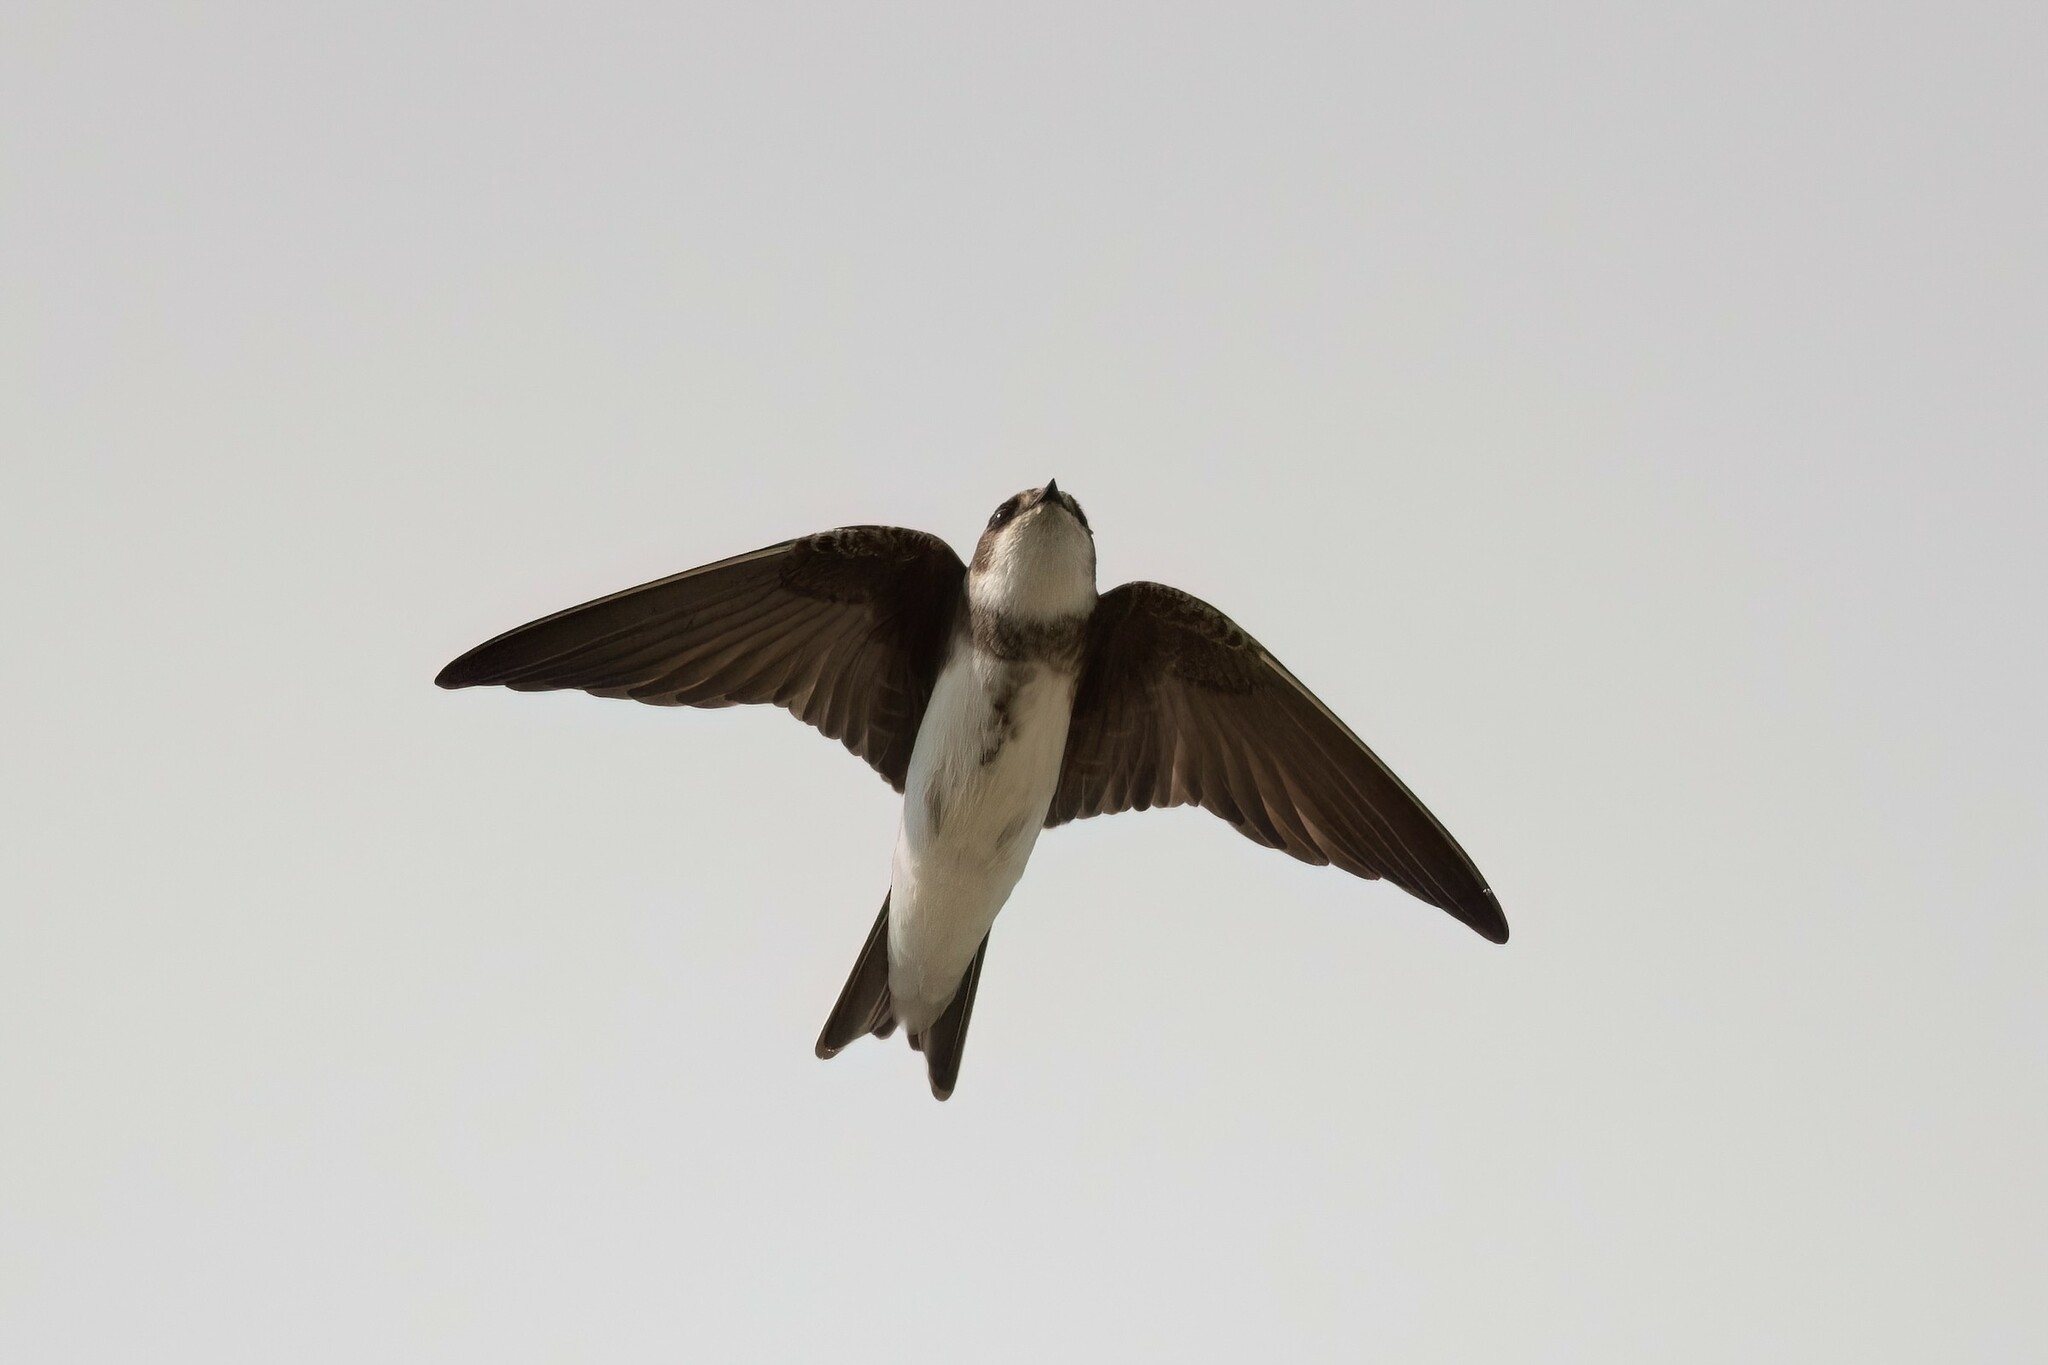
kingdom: Animalia
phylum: Chordata
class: Aves
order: Passeriformes
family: Hirundinidae
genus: Riparia
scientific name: Riparia riparia
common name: Sand martin
